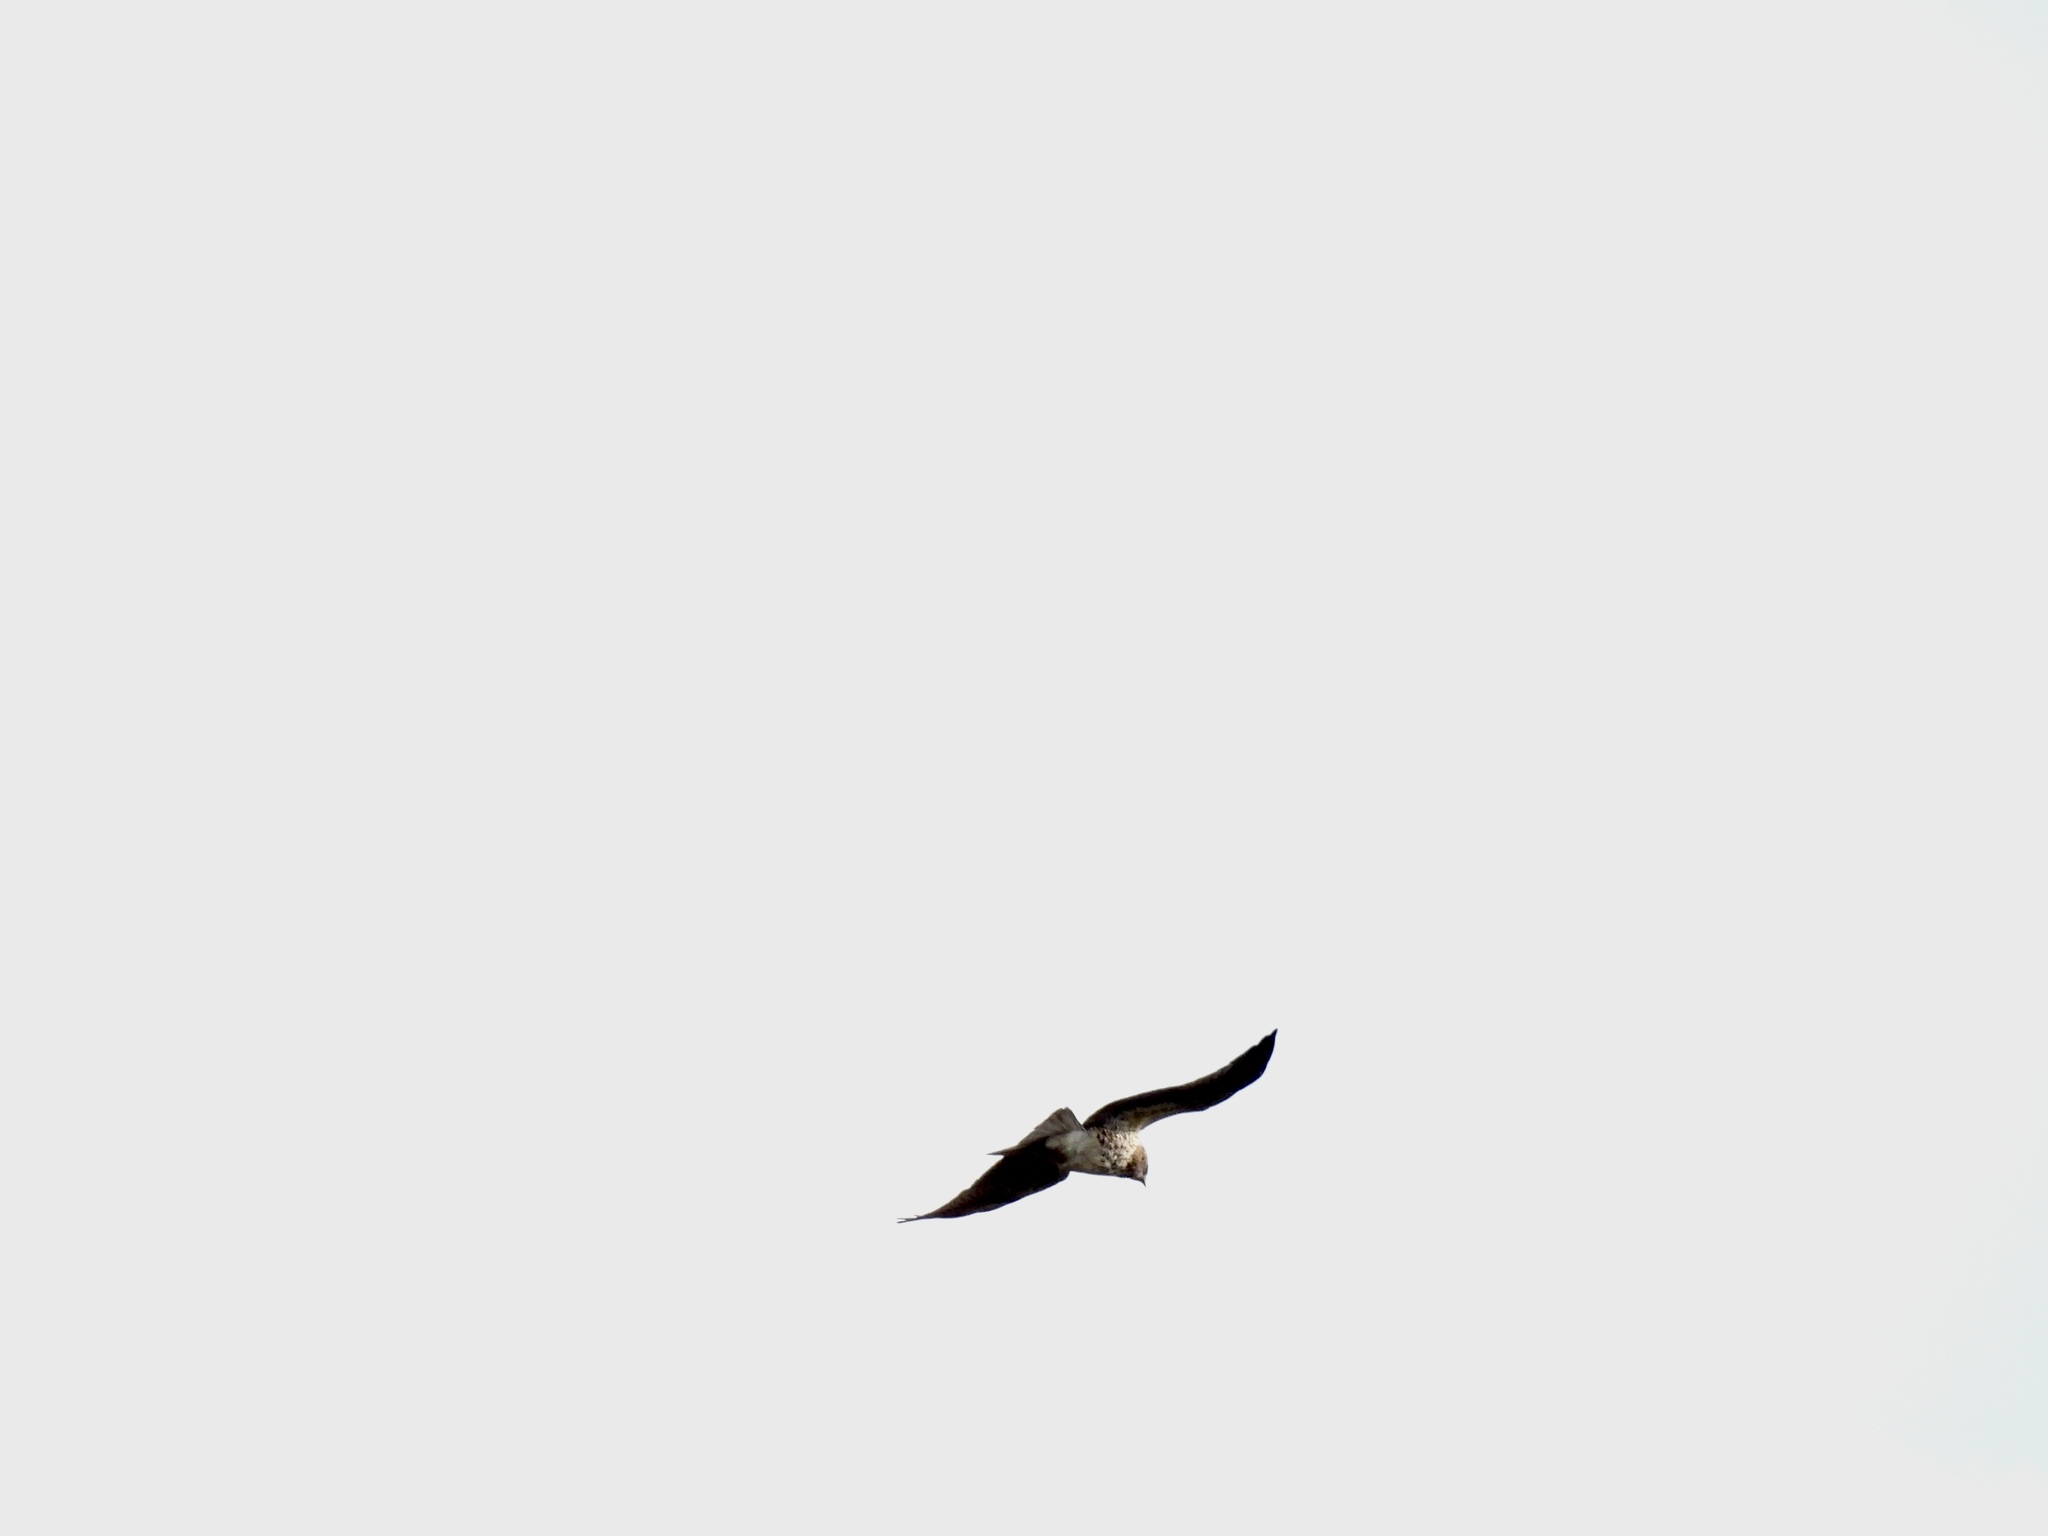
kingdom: Animalia
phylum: Chordata
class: Aves
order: Accipitriformes
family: Accipitridae
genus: Buteo
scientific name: Buteo swainsoni
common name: Swainson's hawk
